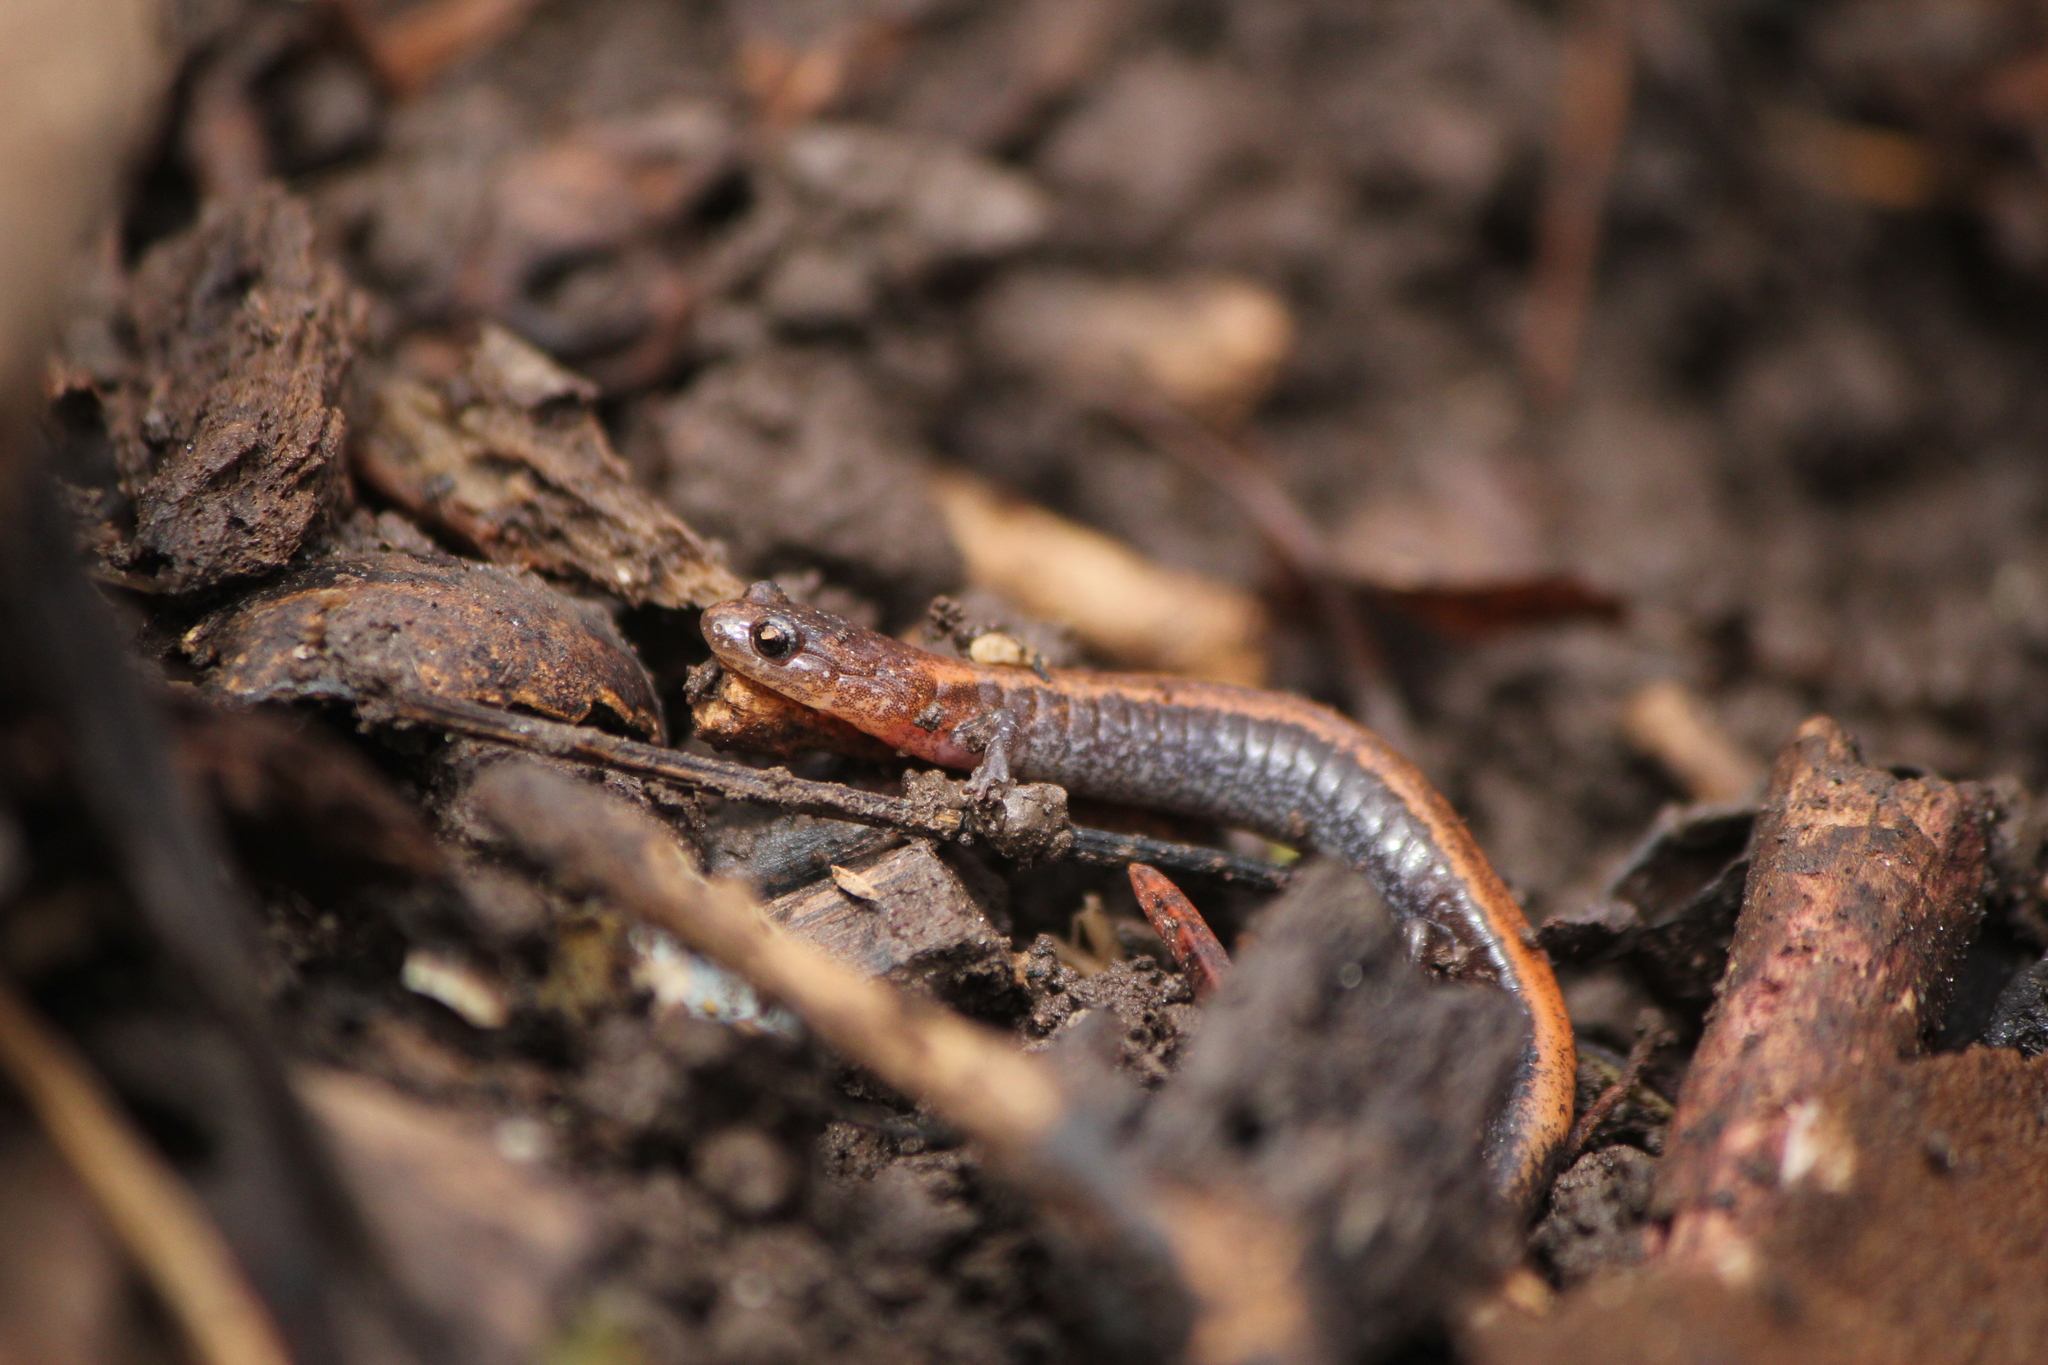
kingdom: Animalia
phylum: Chordata
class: Amphibia
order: Caudata
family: Plethodontidae
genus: Plethodon
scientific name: Plethodon cinereus
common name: Redback salamander
